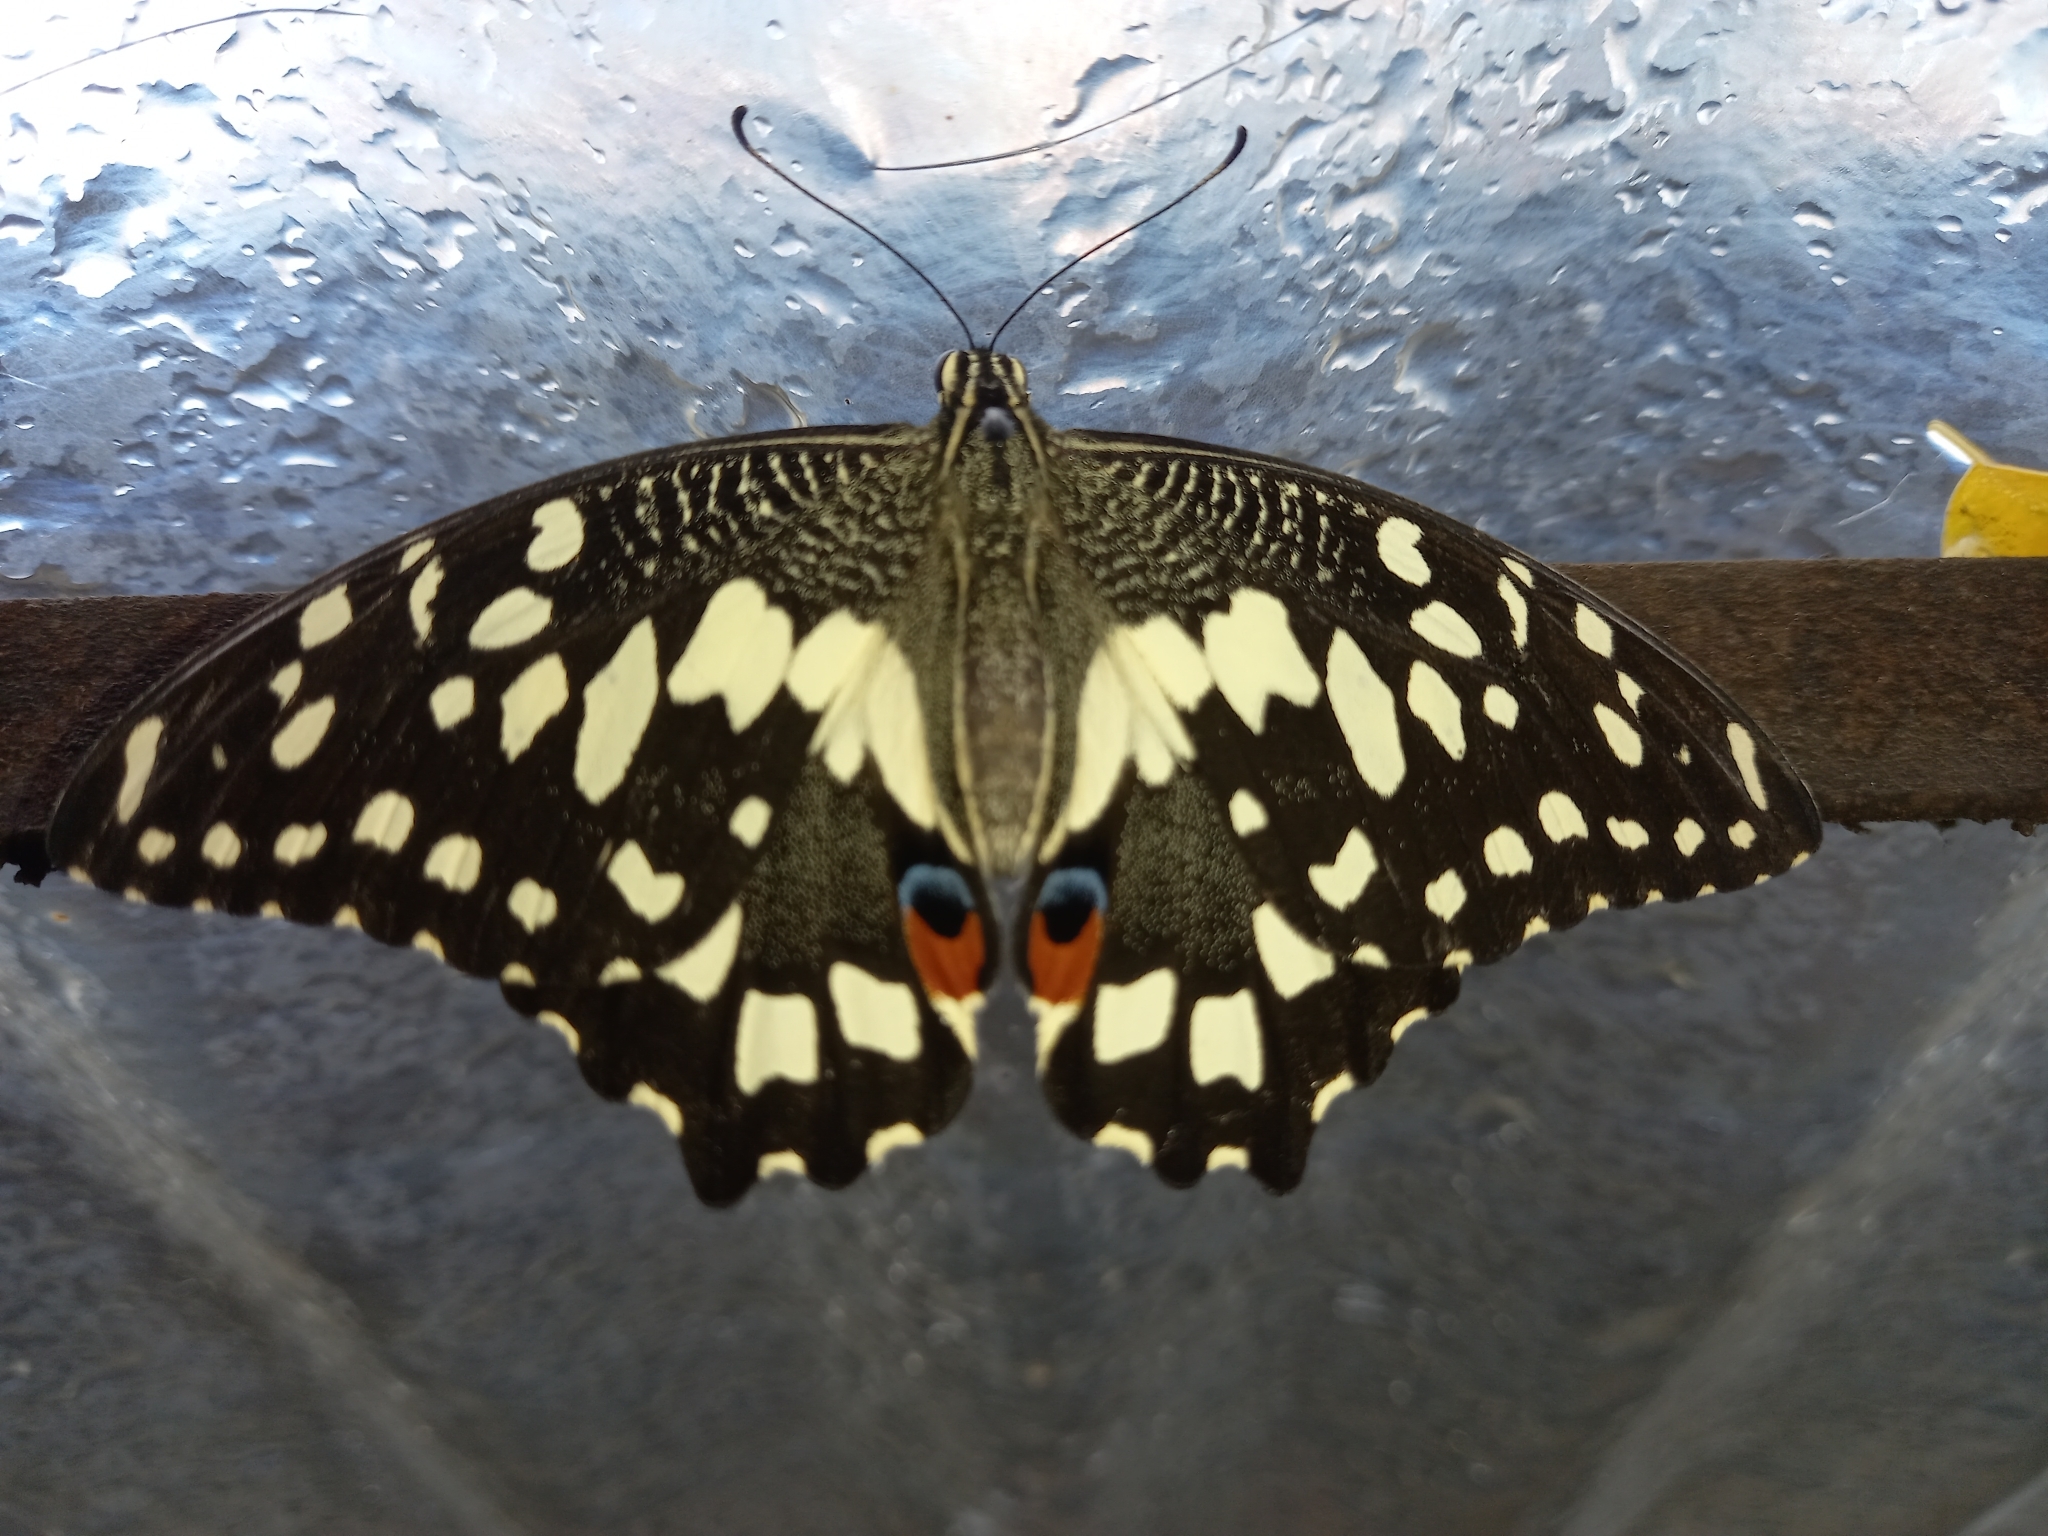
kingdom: Animalia
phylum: Arthropoda
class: Insecta
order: Lepidoptera
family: Papilionidae
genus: Papilio
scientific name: Papilio demoleus
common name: Lime butterfly
